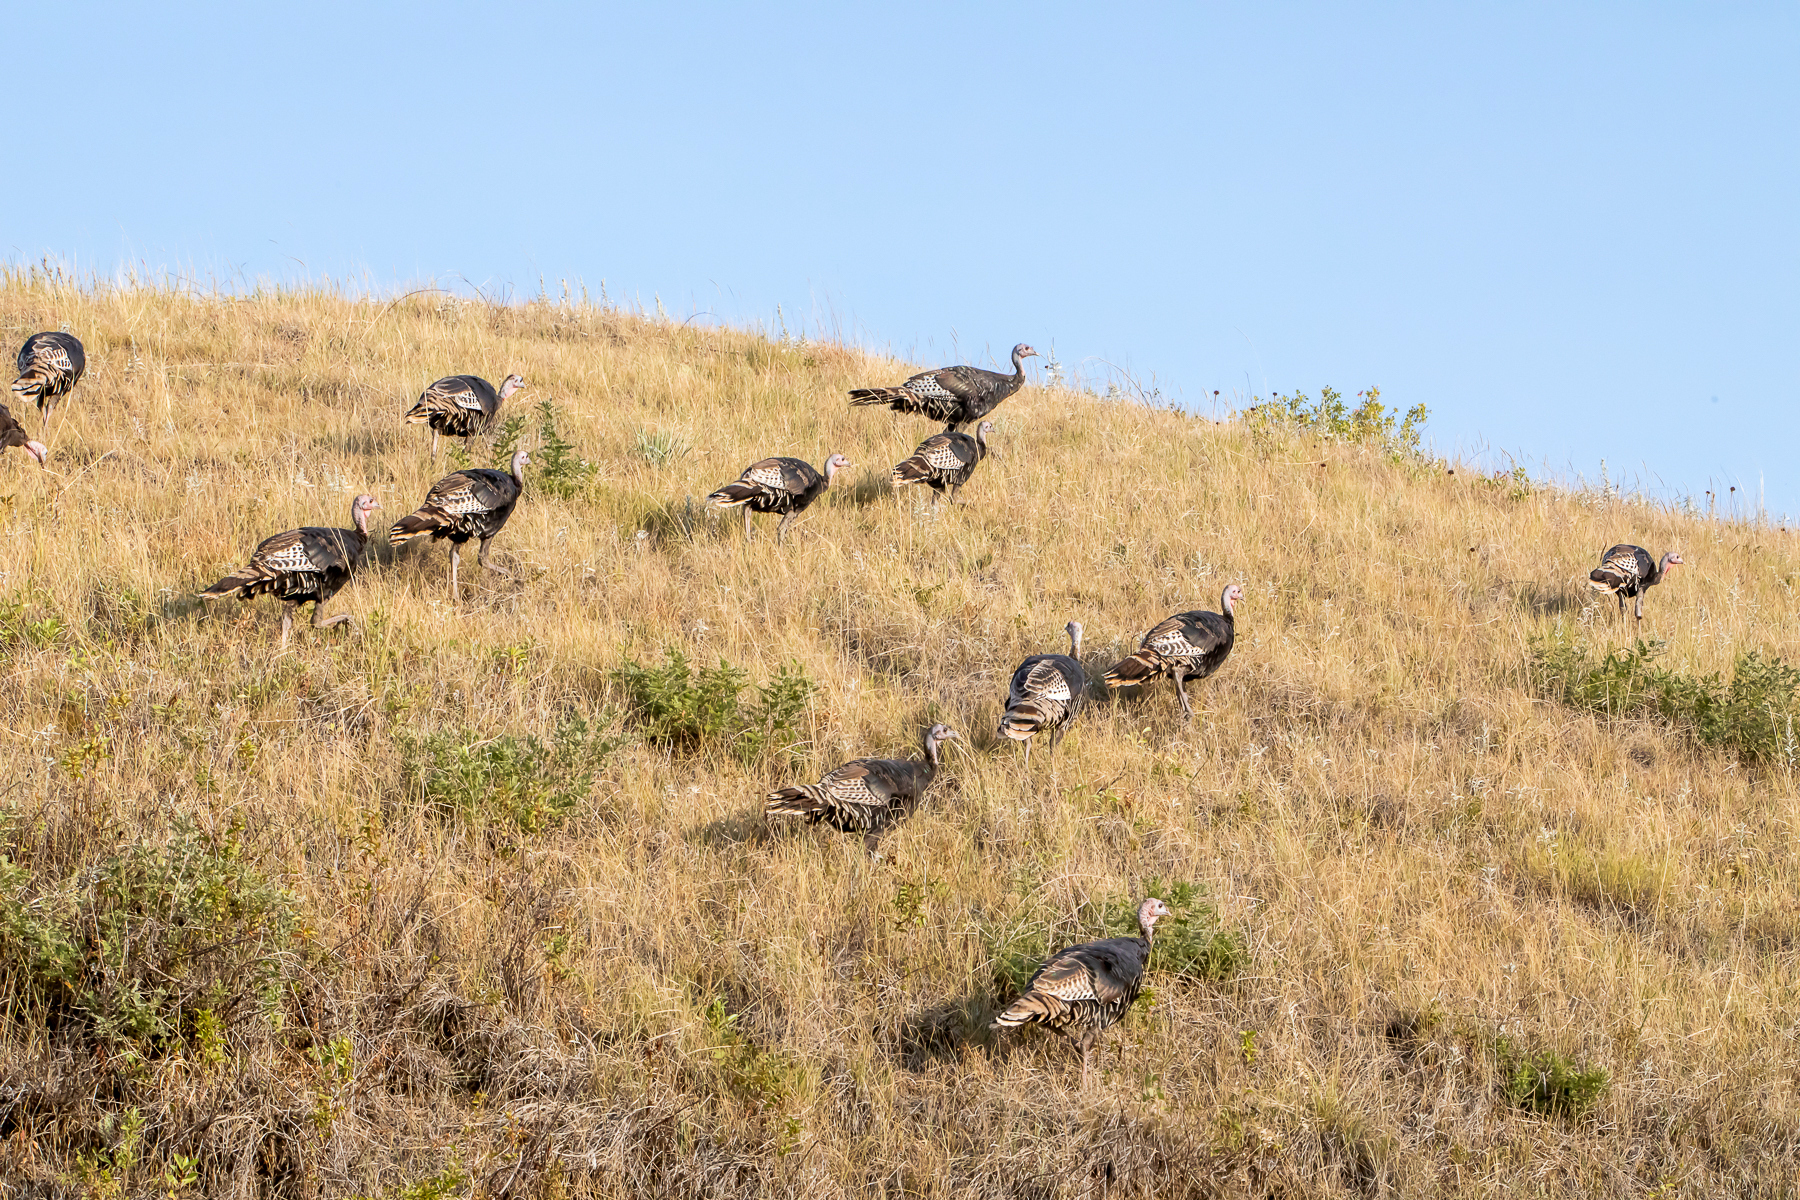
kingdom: Animalia
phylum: Chordata
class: Aves
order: Galliformes
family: Phasianidae
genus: Meleagris
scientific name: Meleagris gallopavo
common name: Wild turkey
